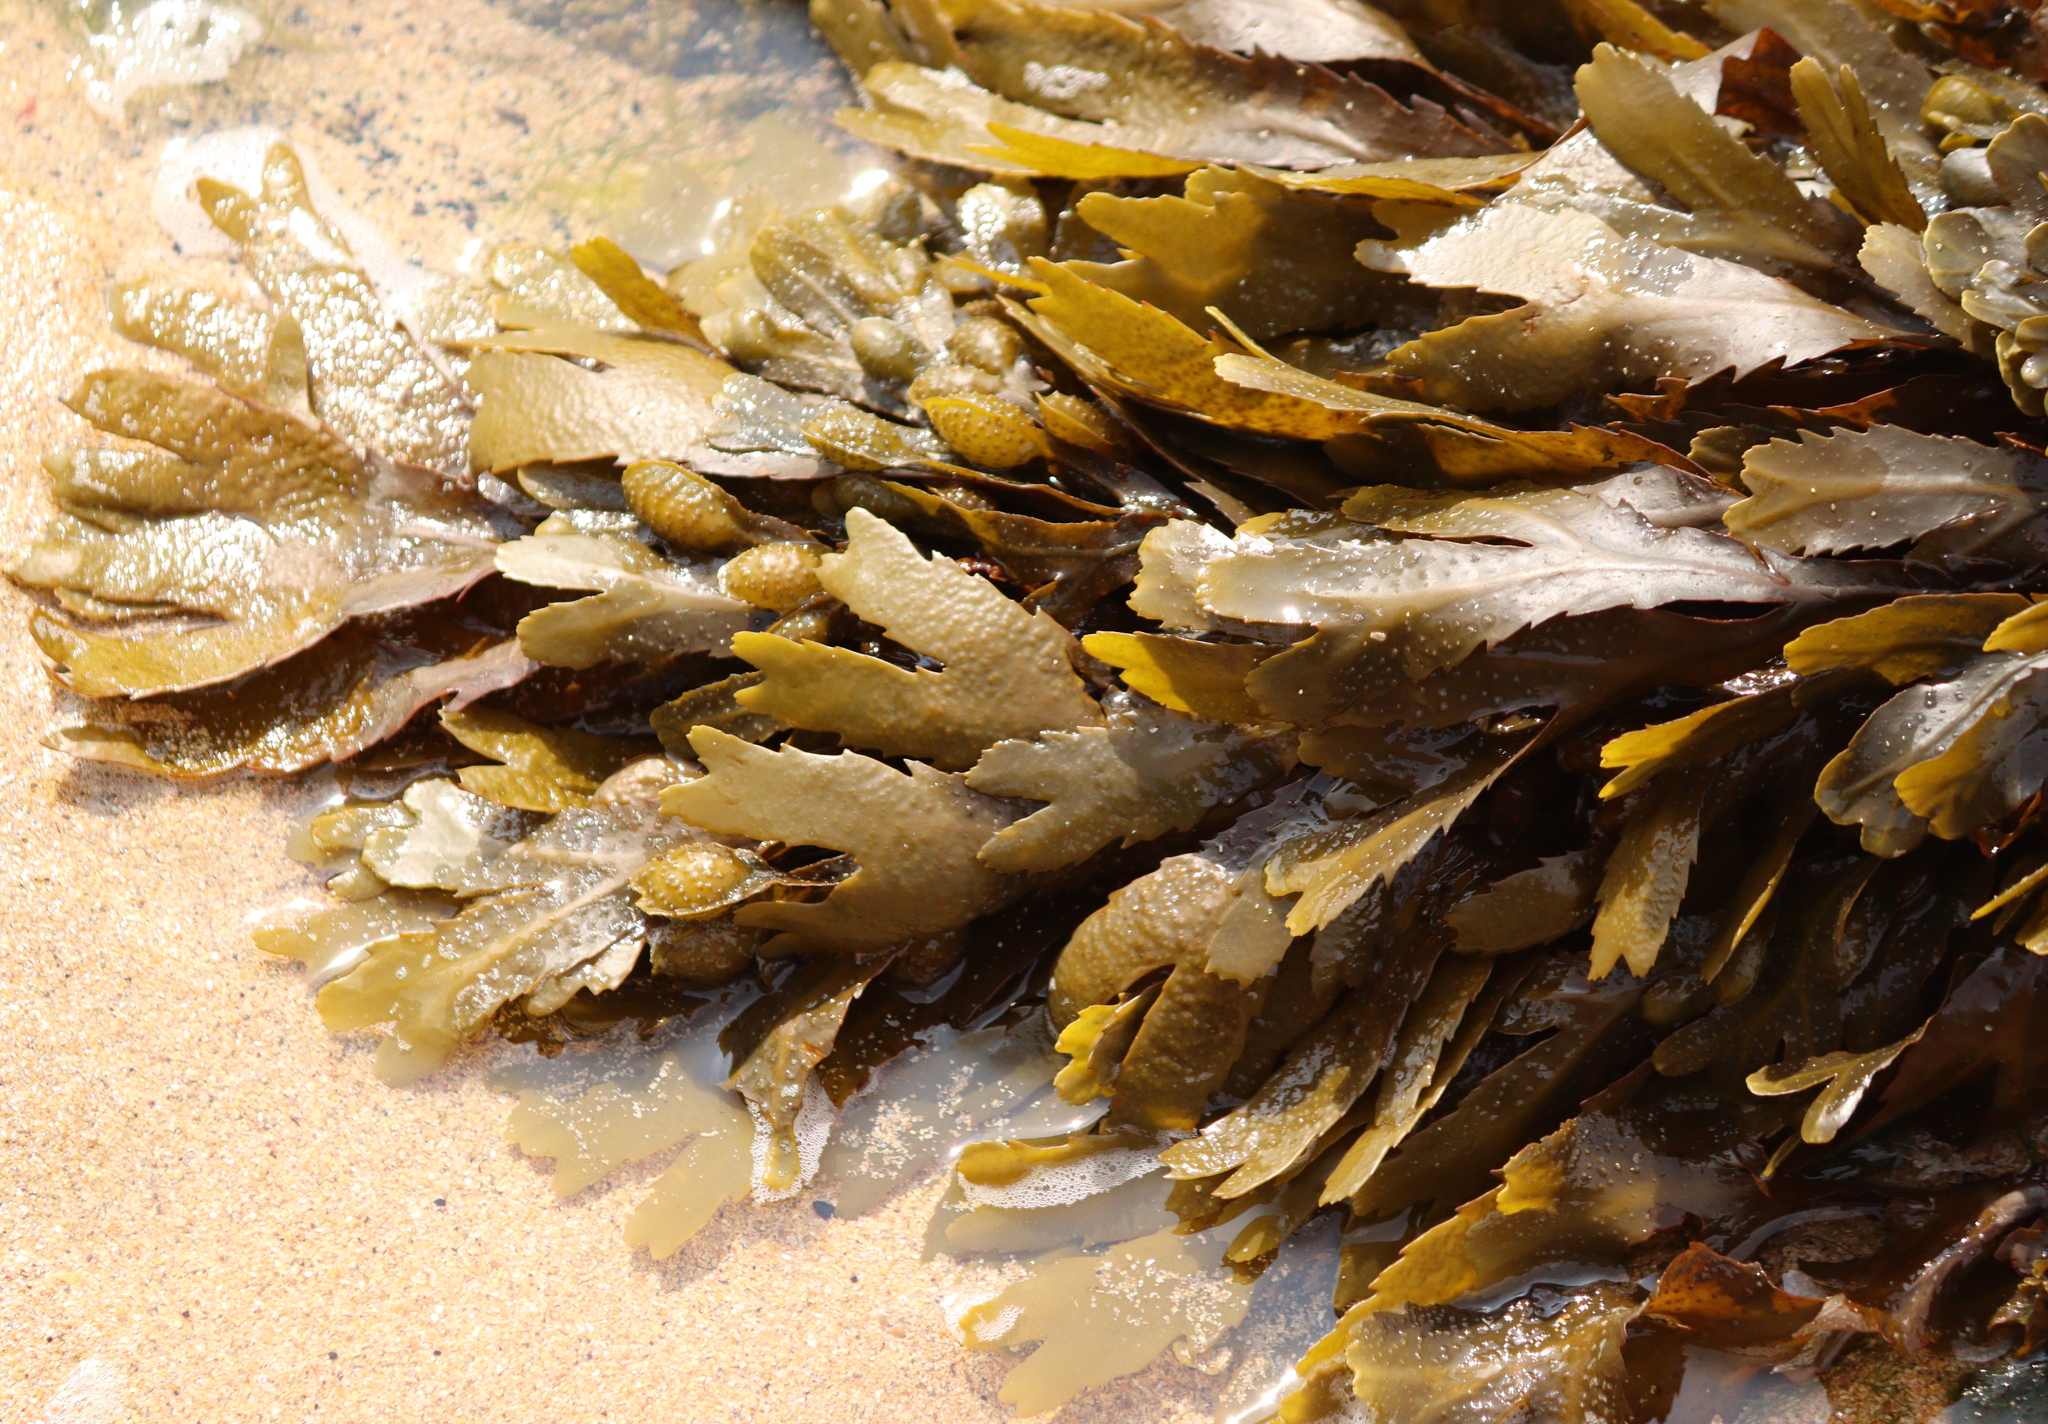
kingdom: Chromista
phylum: Ochrophyta
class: Phaeophyceae
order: Fucales
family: Fucaceae
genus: Fucus
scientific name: Fucus serratus
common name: Toothed wrack
